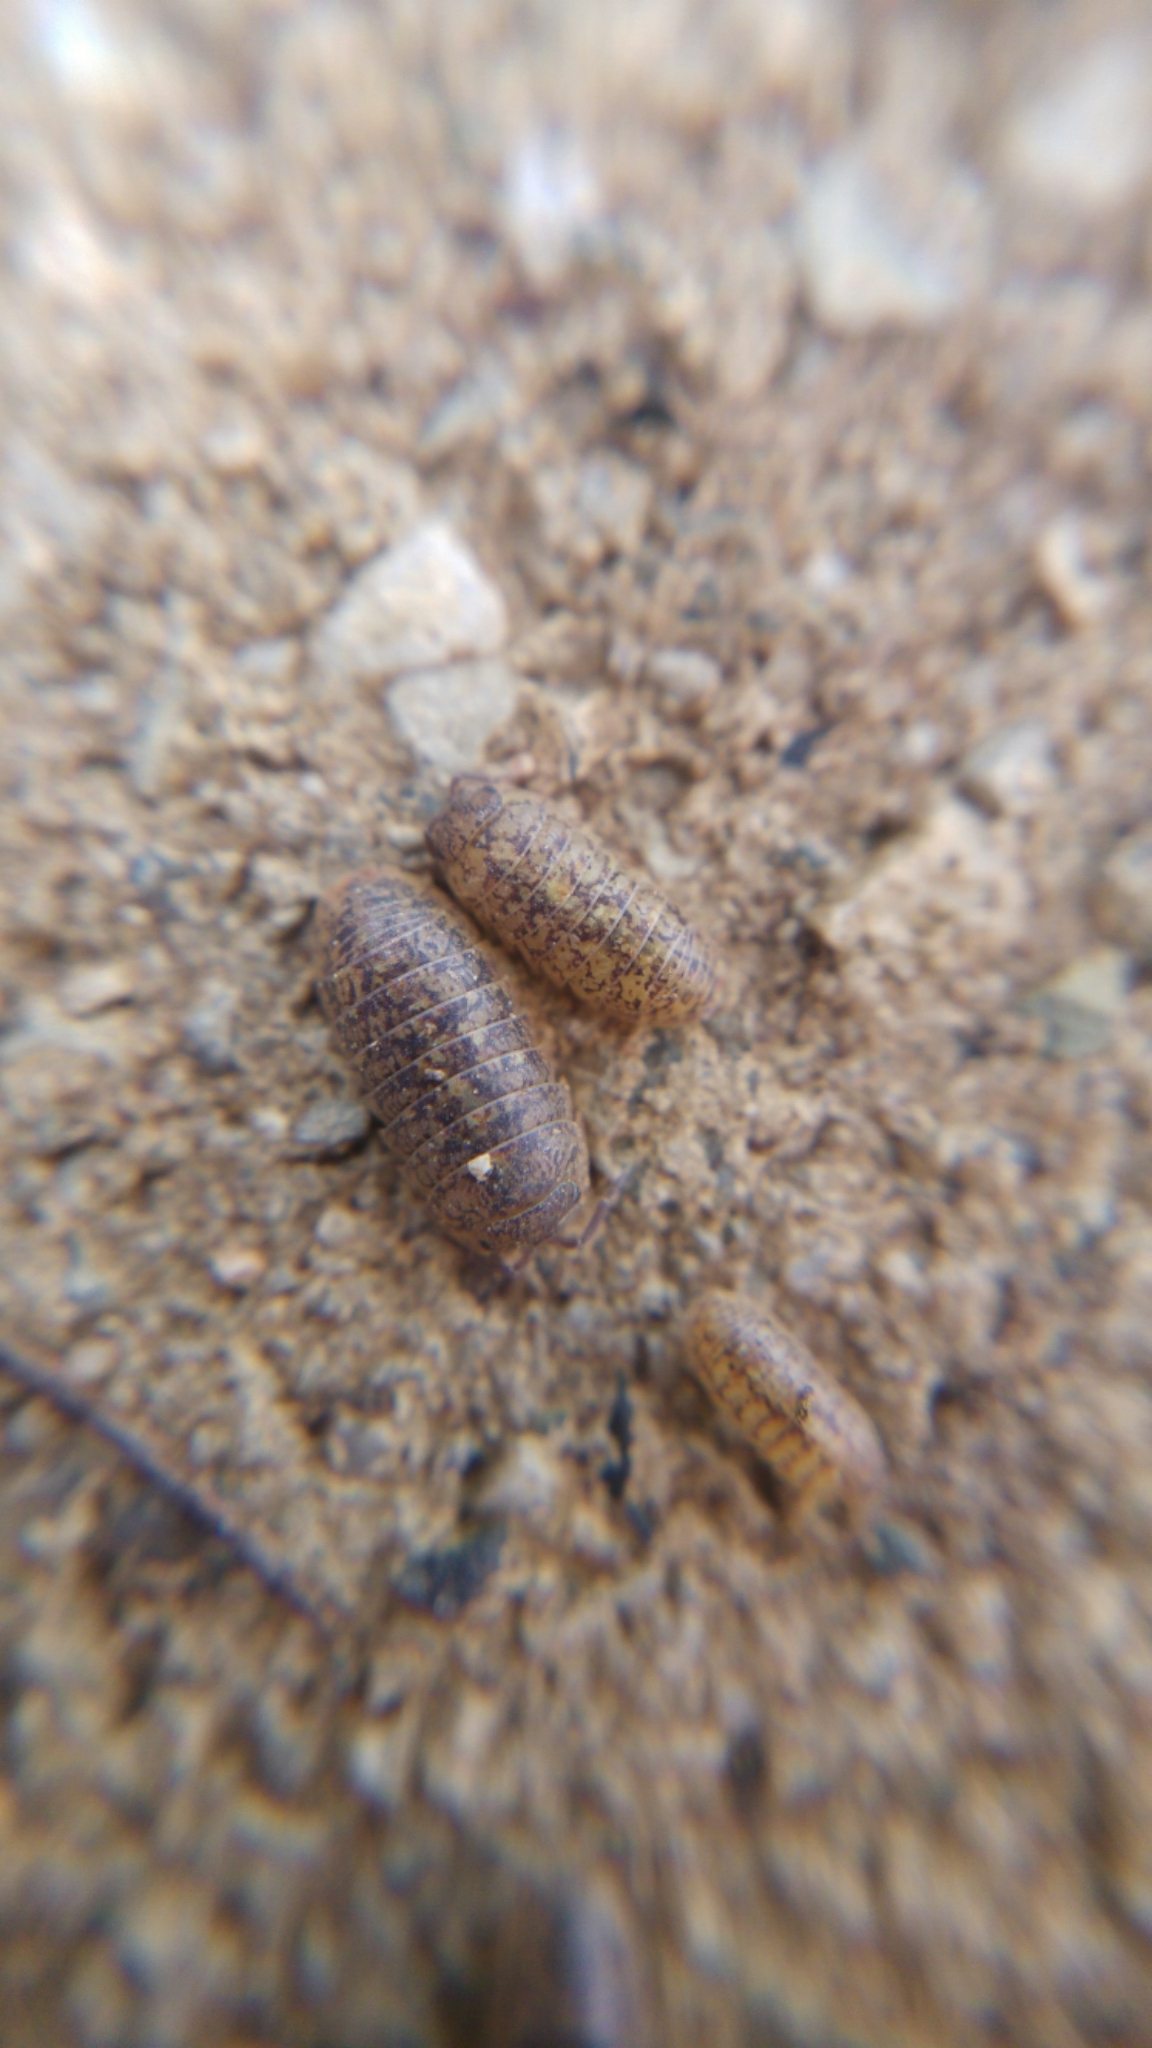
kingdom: Animalia
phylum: Arthropoda
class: Malacostraca
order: Isopoda
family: Armadillidiidae
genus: Armadillidium
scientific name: Armadillidium assimile
